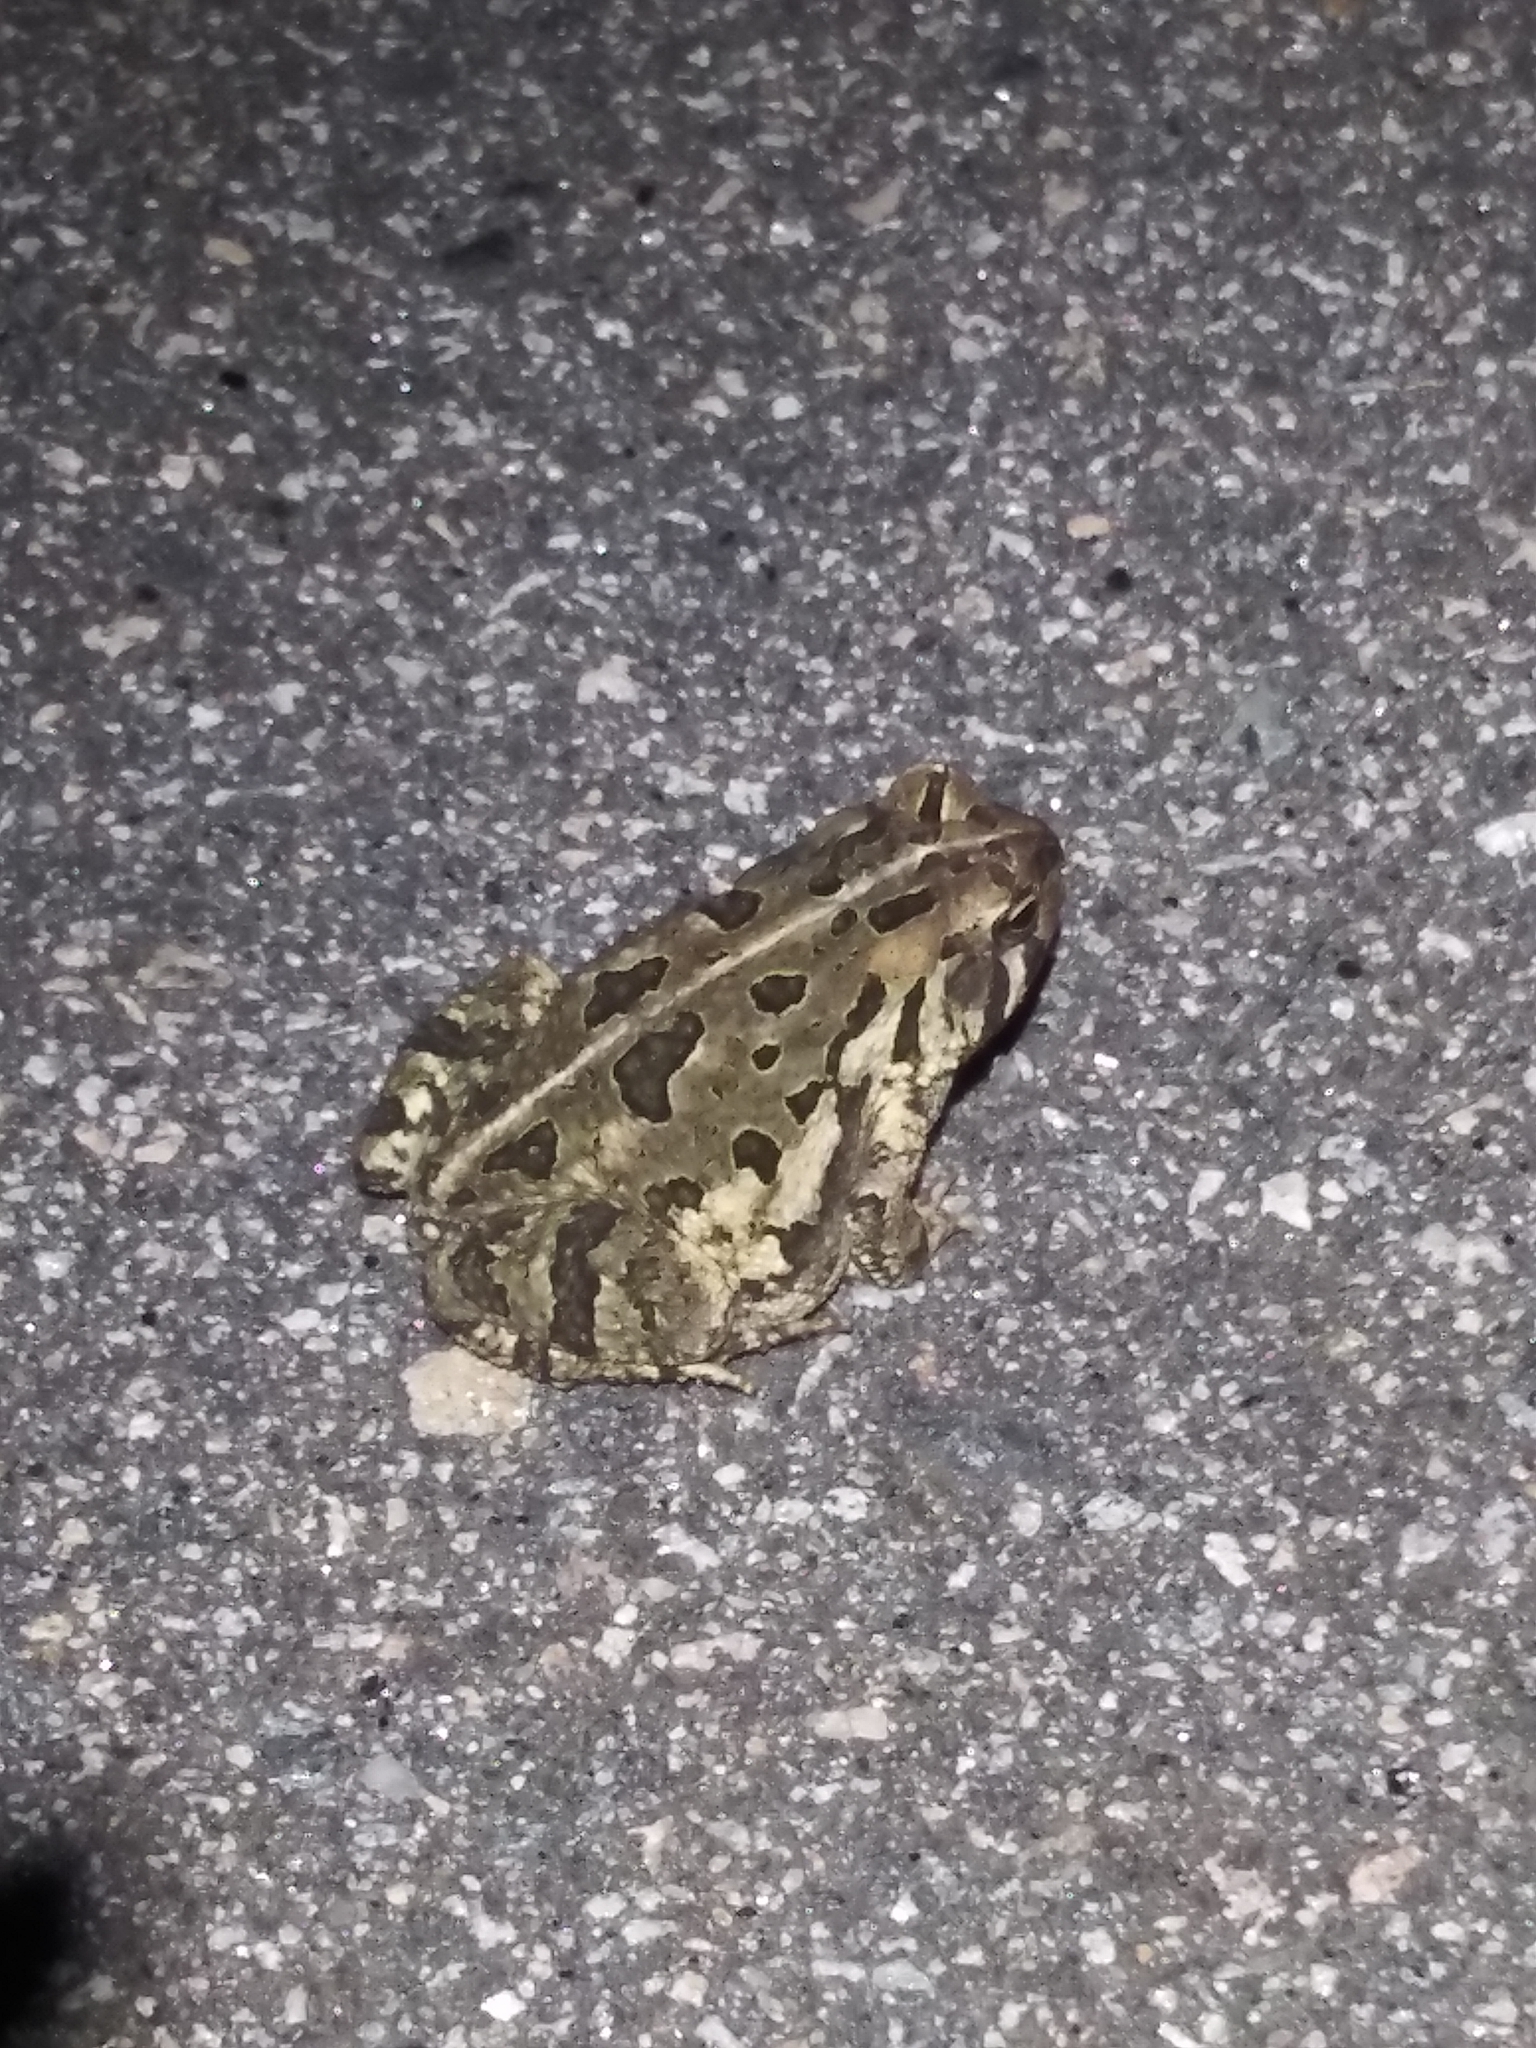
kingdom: Animalia
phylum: Chordata
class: Amphibia
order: Anura
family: Bufonidae
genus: Anaxyrus
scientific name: Anaxyrus fowleri
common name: Fowler's toad
